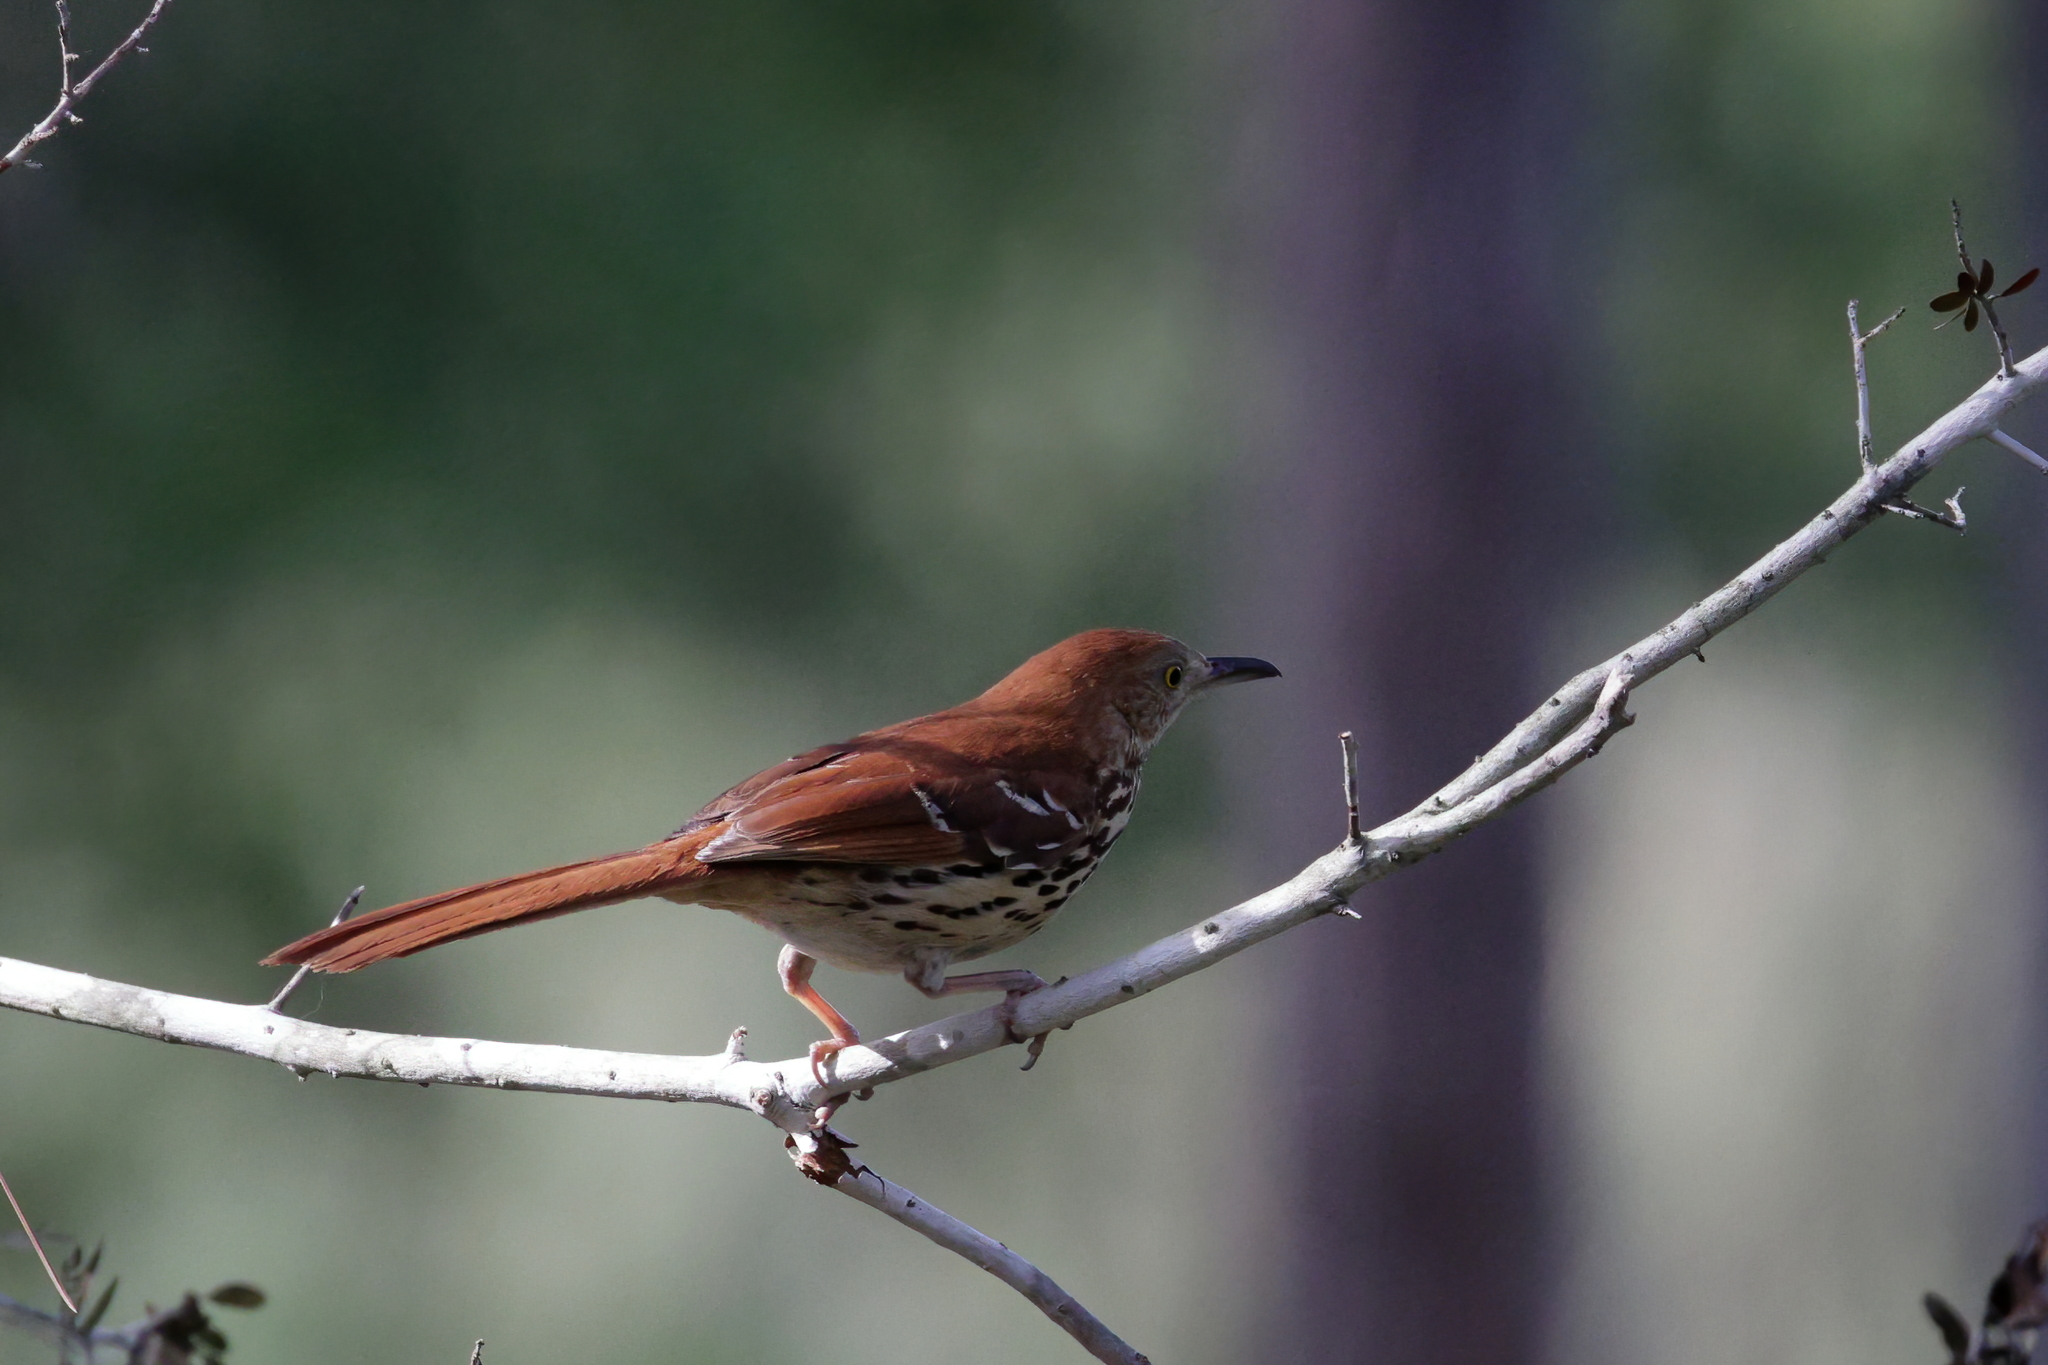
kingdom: Animalia
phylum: Chordata
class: Aves
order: Passeriformes
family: Mimidae
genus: Toxostoma
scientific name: Toxostoma rufum
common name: Brown thrasher
